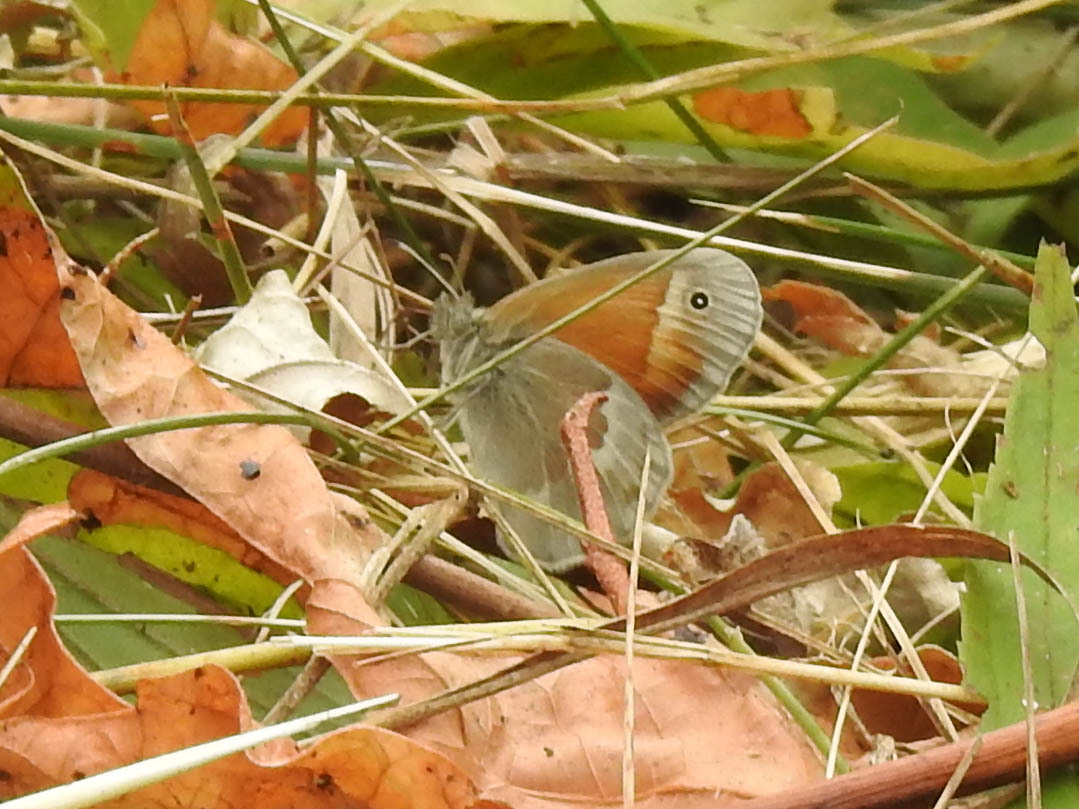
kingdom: Animalia
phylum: Arthropoda
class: Insecta
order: Lepidoptera
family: Nymphalidae
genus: Coenonympha
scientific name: Coenonympha california
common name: Common ringlet
